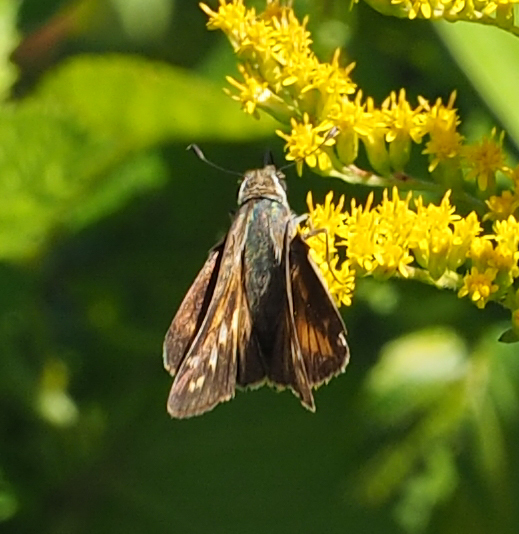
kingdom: Animalia
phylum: Arthropoda
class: Insecta
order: Lepidoptera
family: Hesperiidae
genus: Atalopedes
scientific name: Atalopedes
